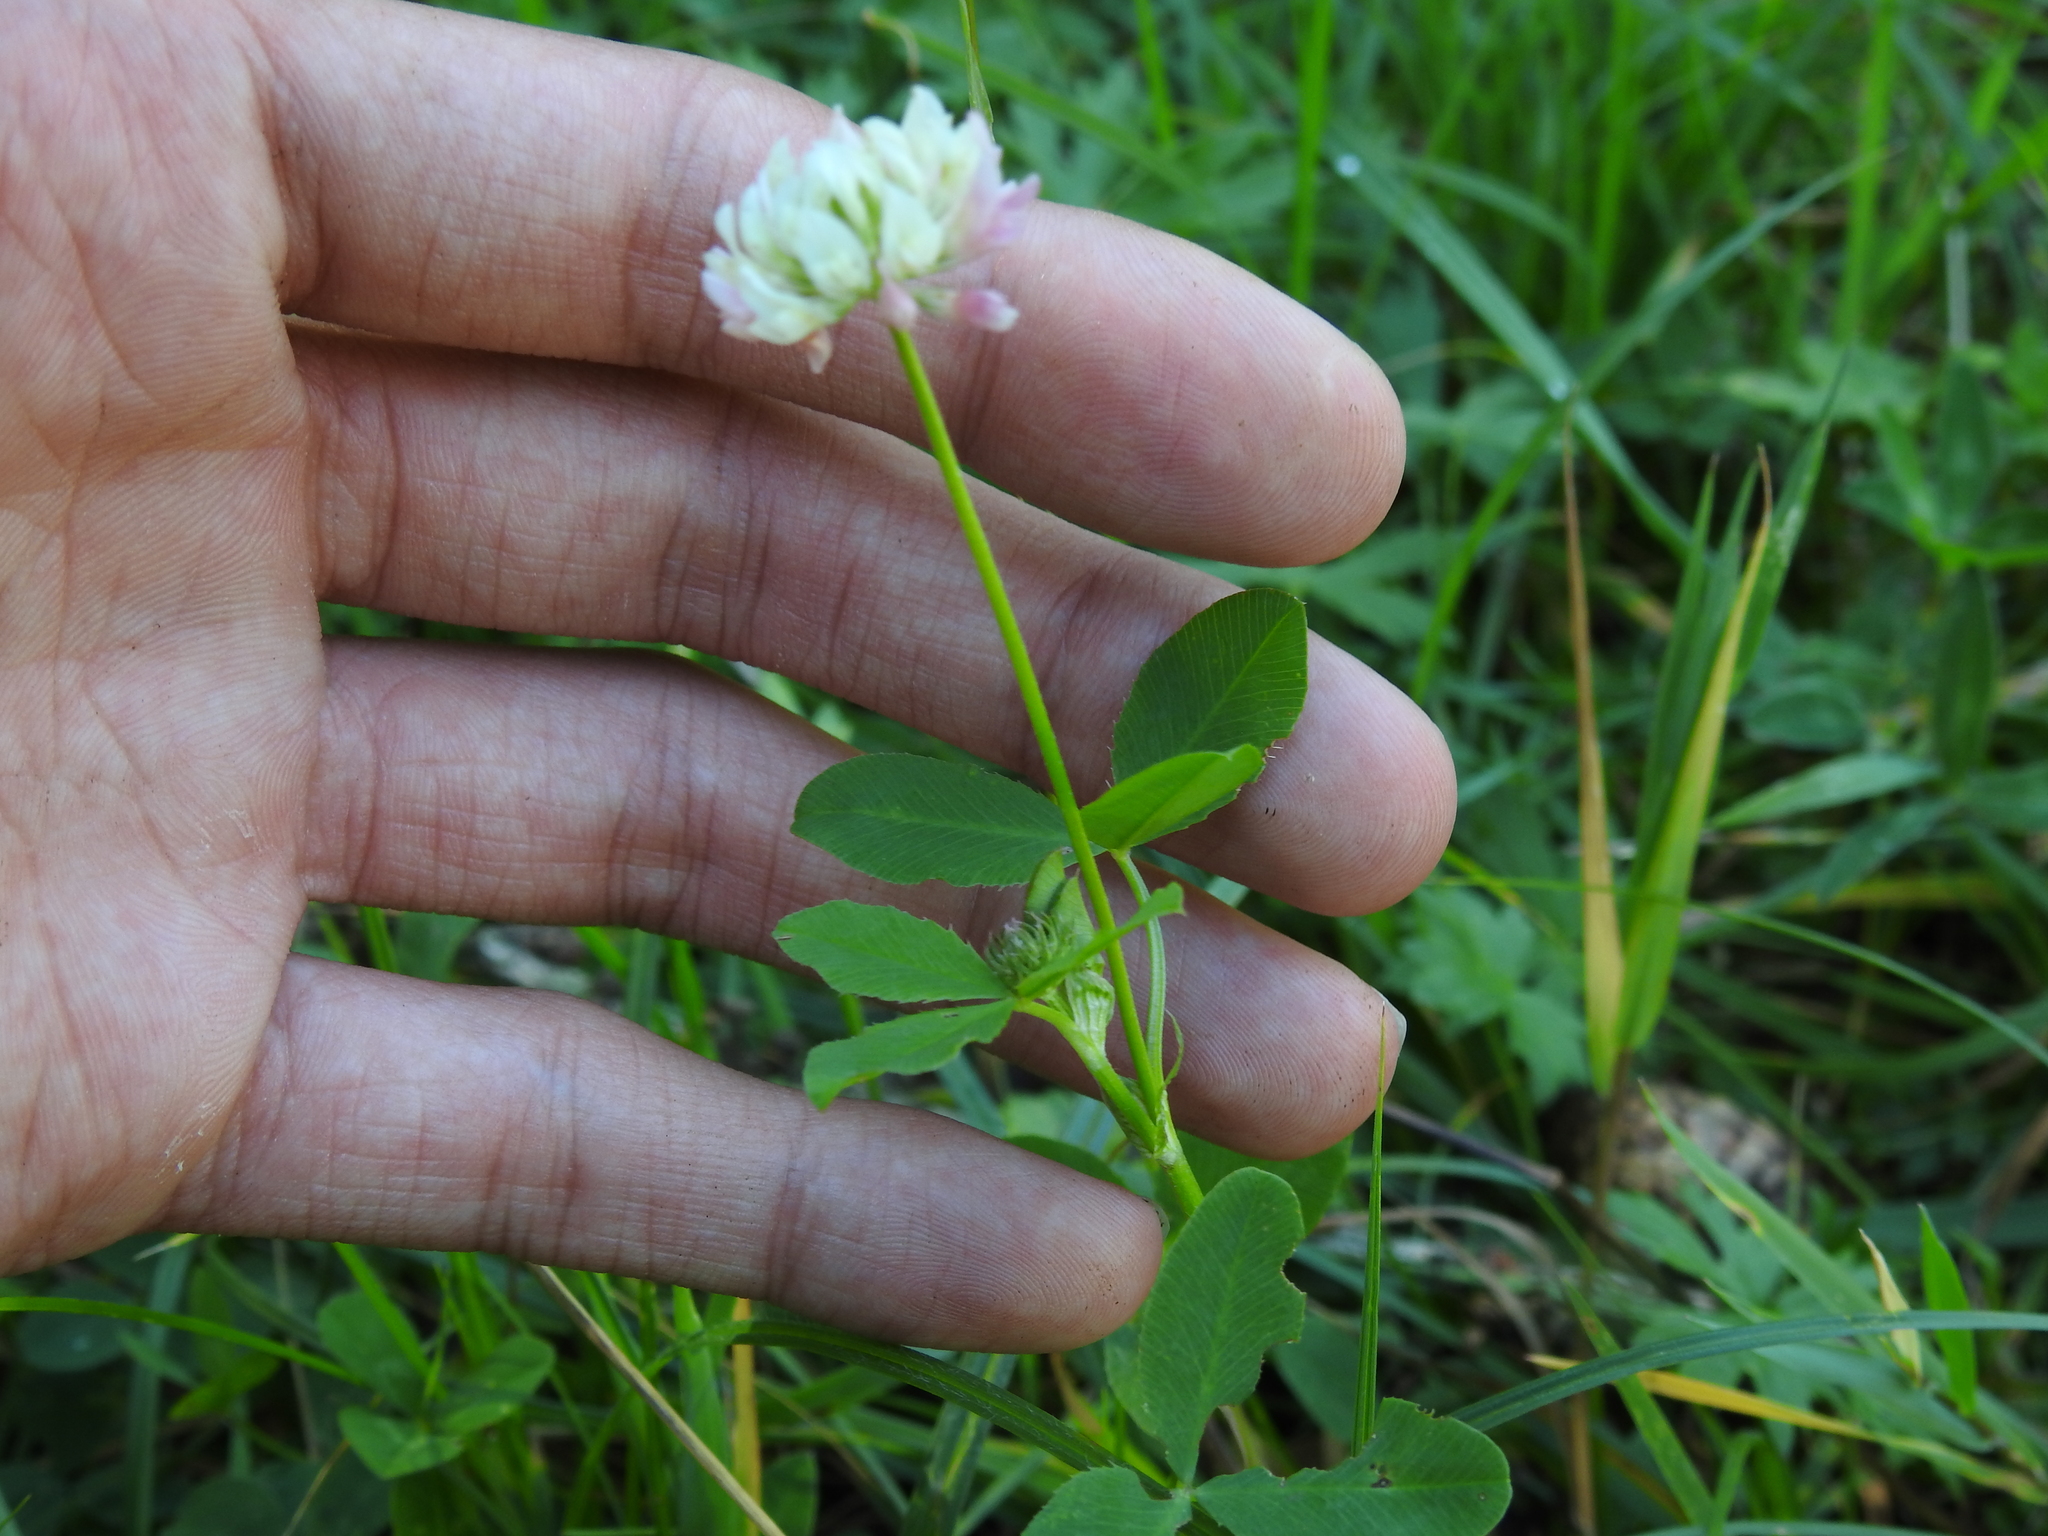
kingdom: Plantae
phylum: Tracheophyta
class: Magnoliopsida
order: Fabales
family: Fabaceae
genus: Trifolium
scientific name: Trifolium hybridum
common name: Alsike clover
